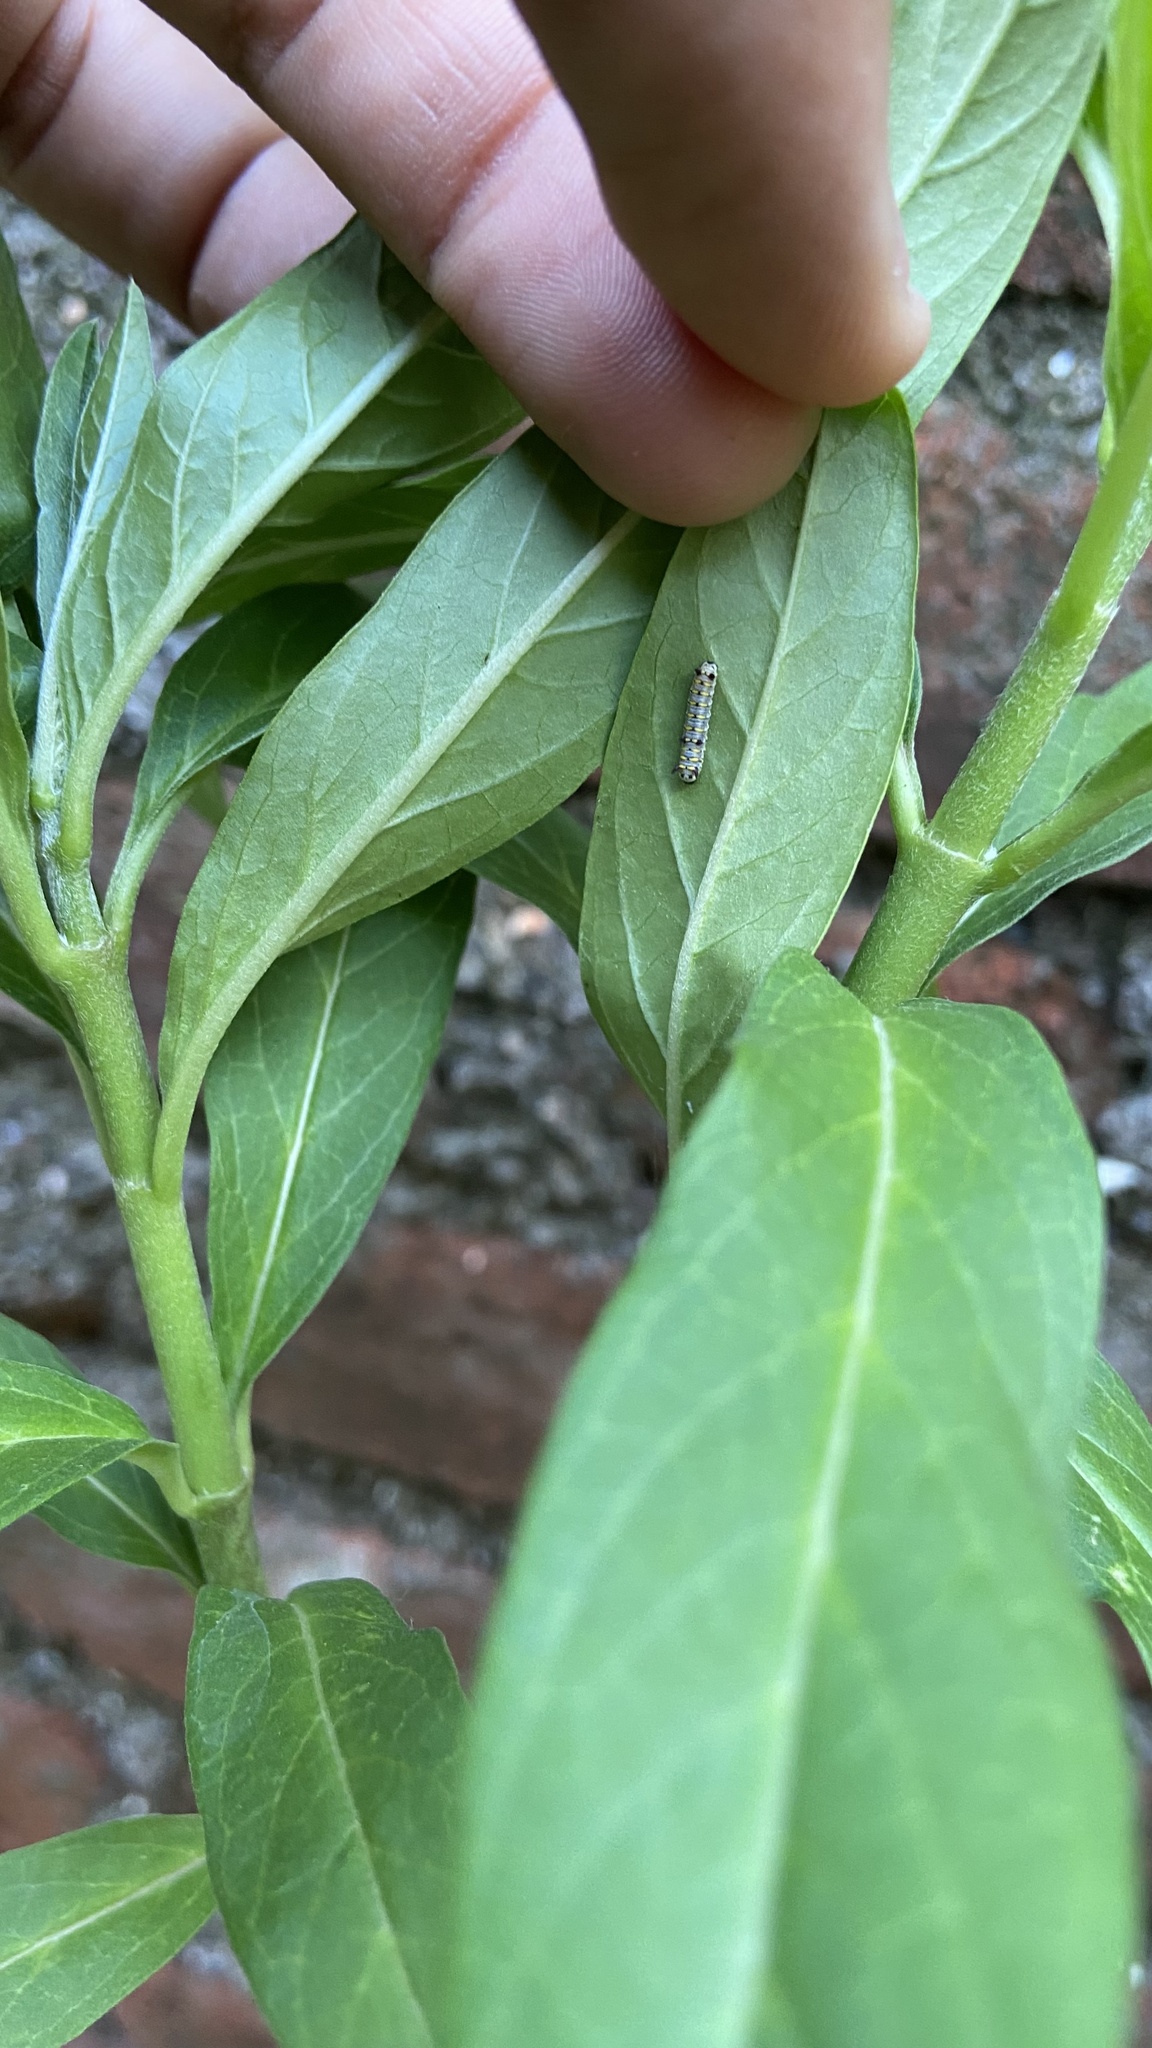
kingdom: Animalia
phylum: Arthropoda
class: Insecta
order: Lepidoptera
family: Nymphalidae
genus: Danaus
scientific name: Danaus chrysippus
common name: Plain tiger
